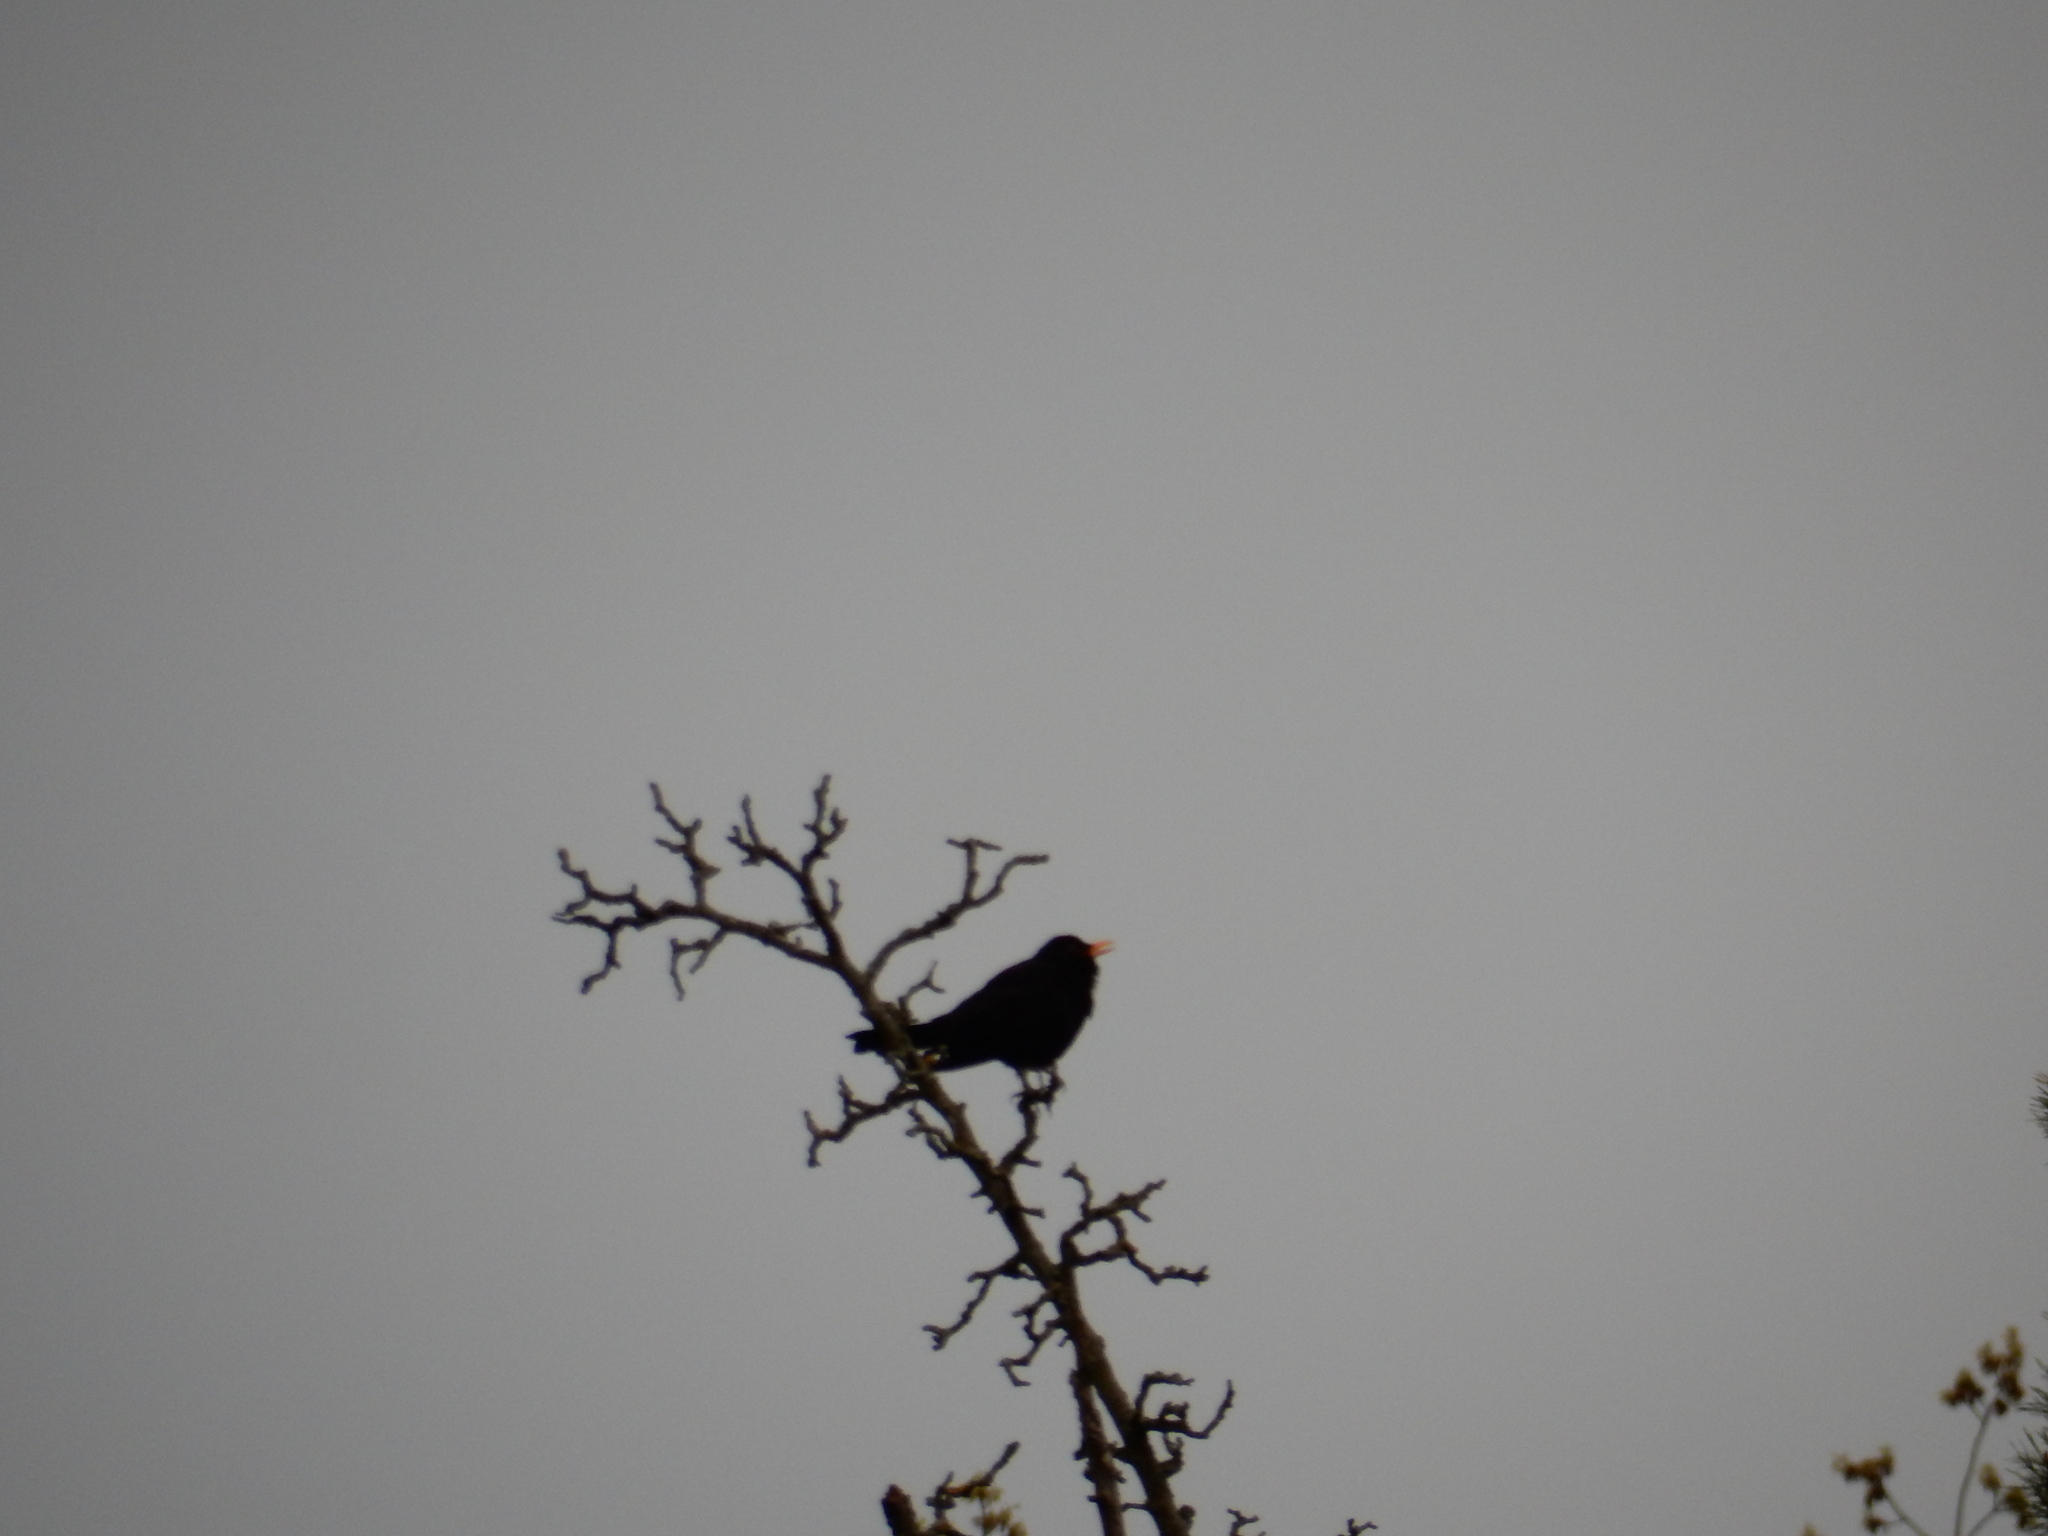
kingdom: Animalia
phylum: Chordata
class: Aves
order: Passeriformes
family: Turdidae
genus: Turdus
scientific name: Turdus merula
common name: Common blackbird
